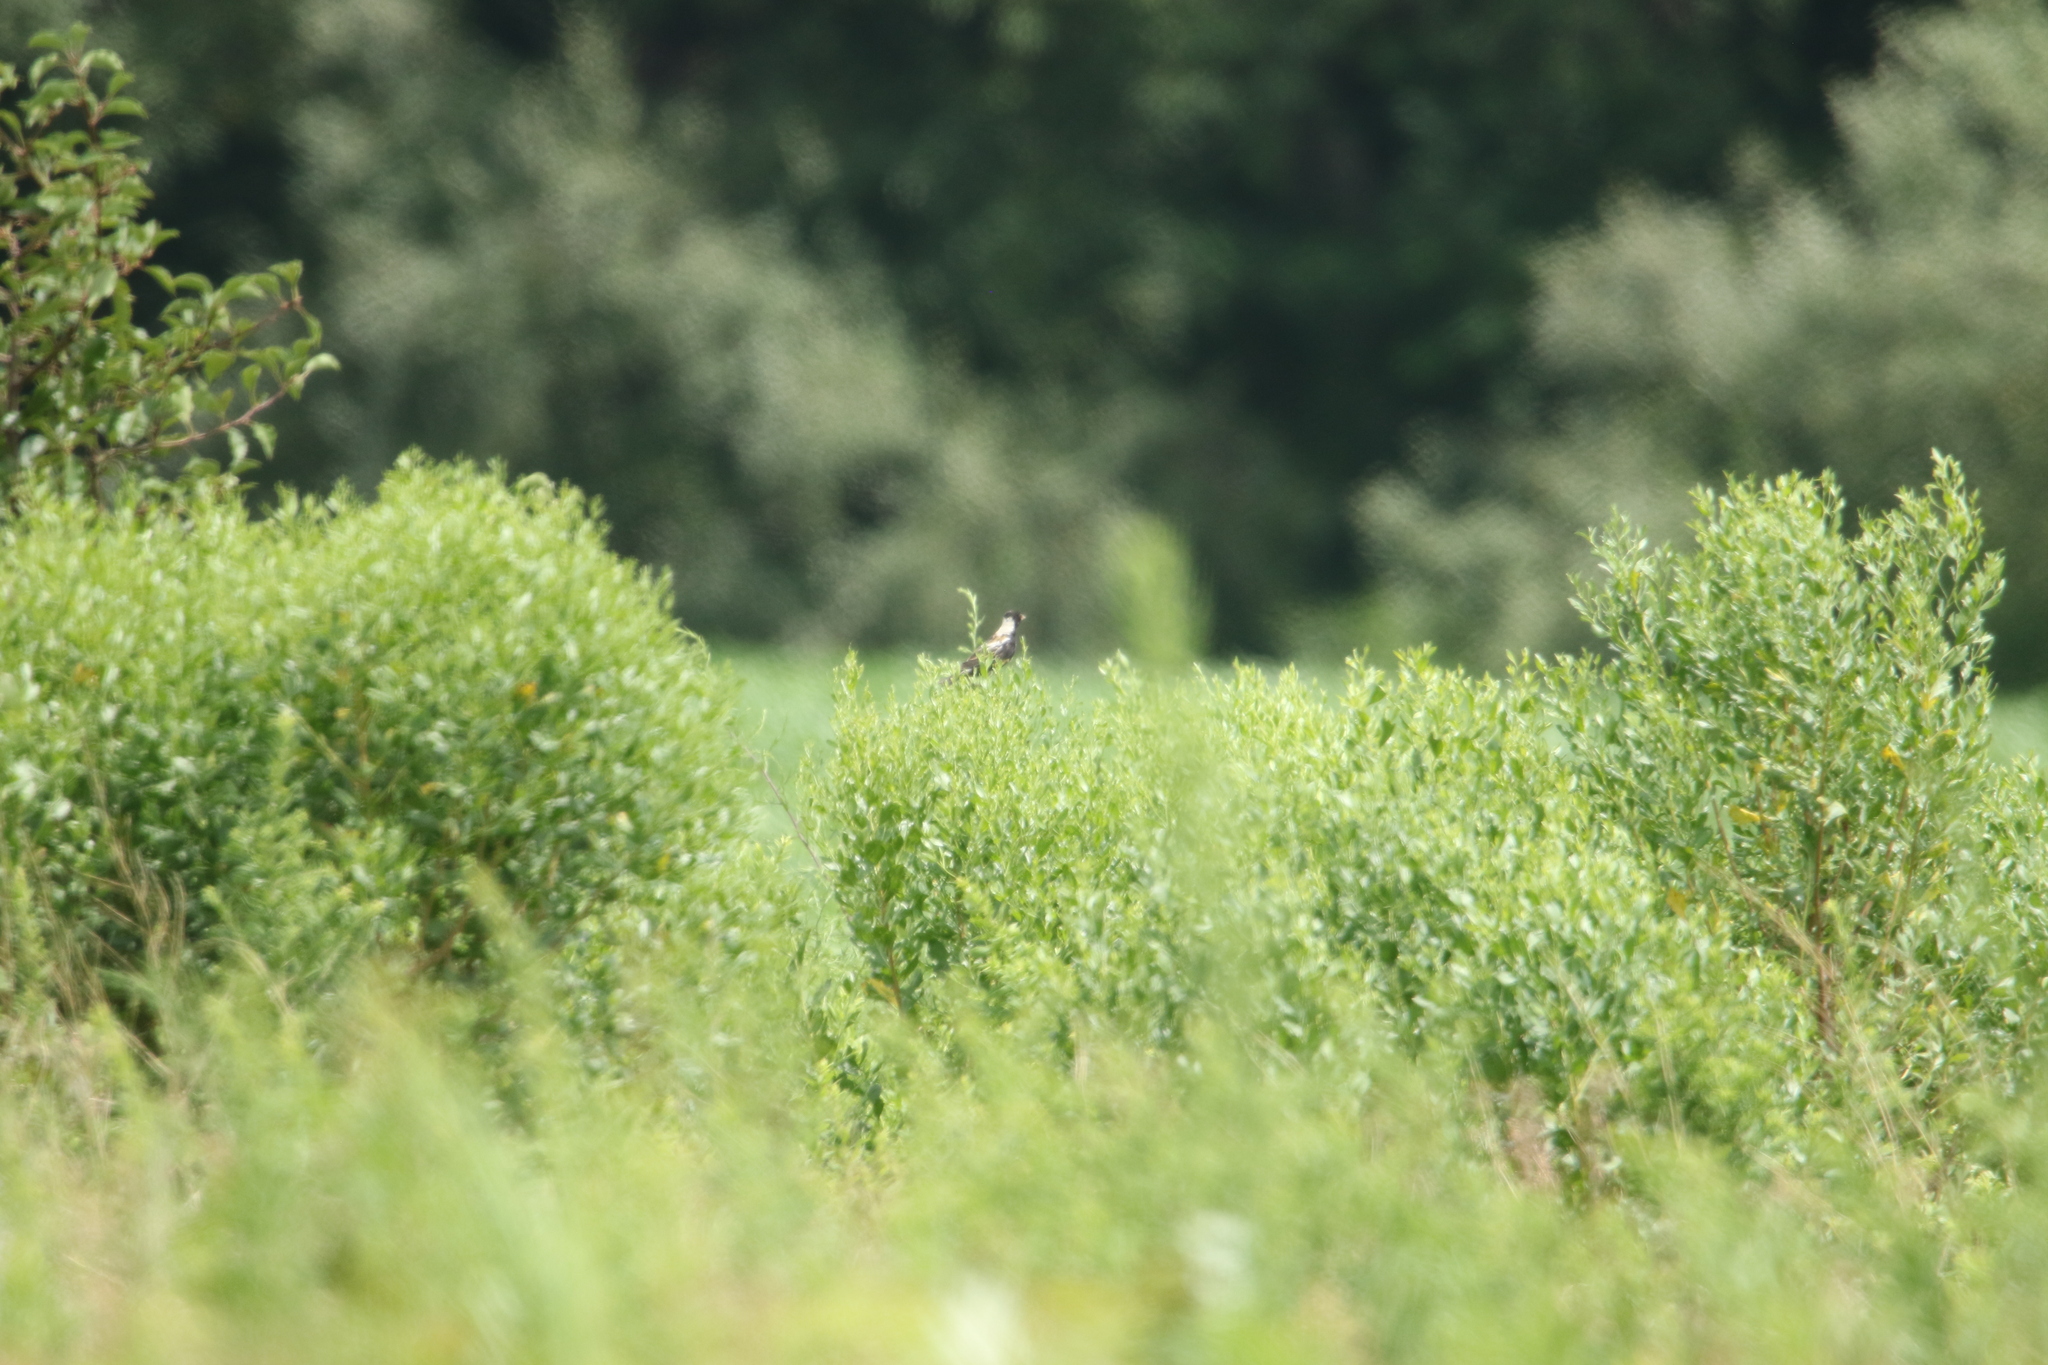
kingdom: Animalia
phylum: Chordata
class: Aves
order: Passeriformes
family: Icteridae
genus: Dolichonyx
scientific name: Dolichonyx oryzivorus
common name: Bobolink
